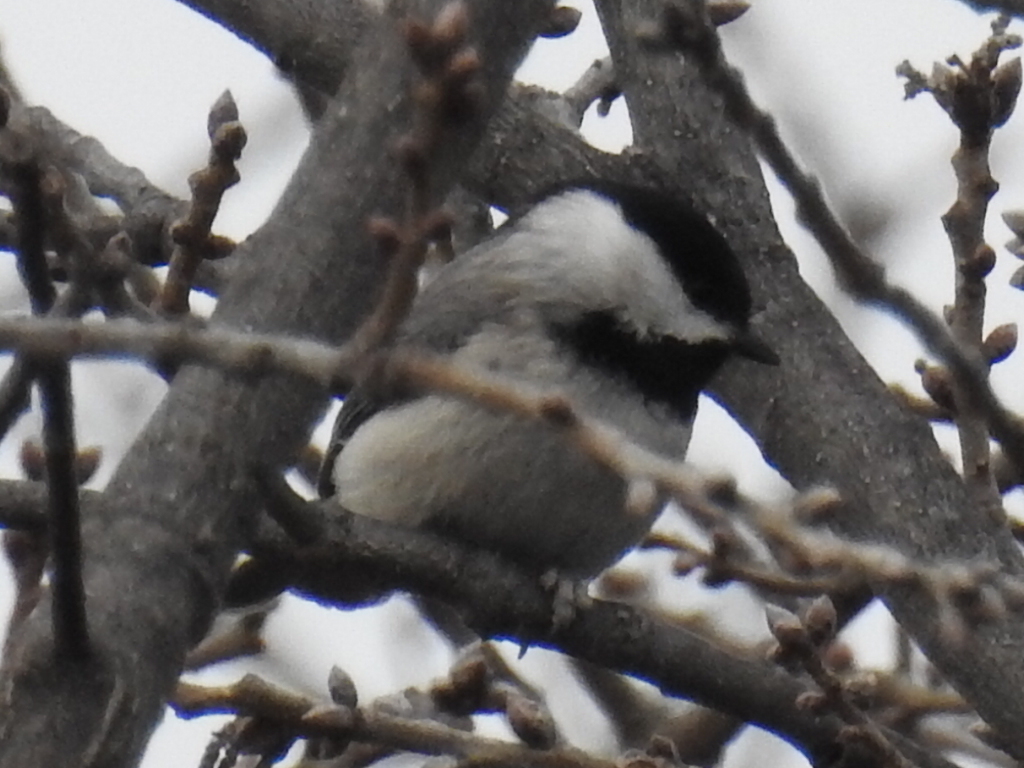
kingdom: Animalia
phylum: Chordata
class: Aves
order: Passeriformes
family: Paridae
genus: Poecile
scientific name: Poecile carolinensis
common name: Carolina chickadee
